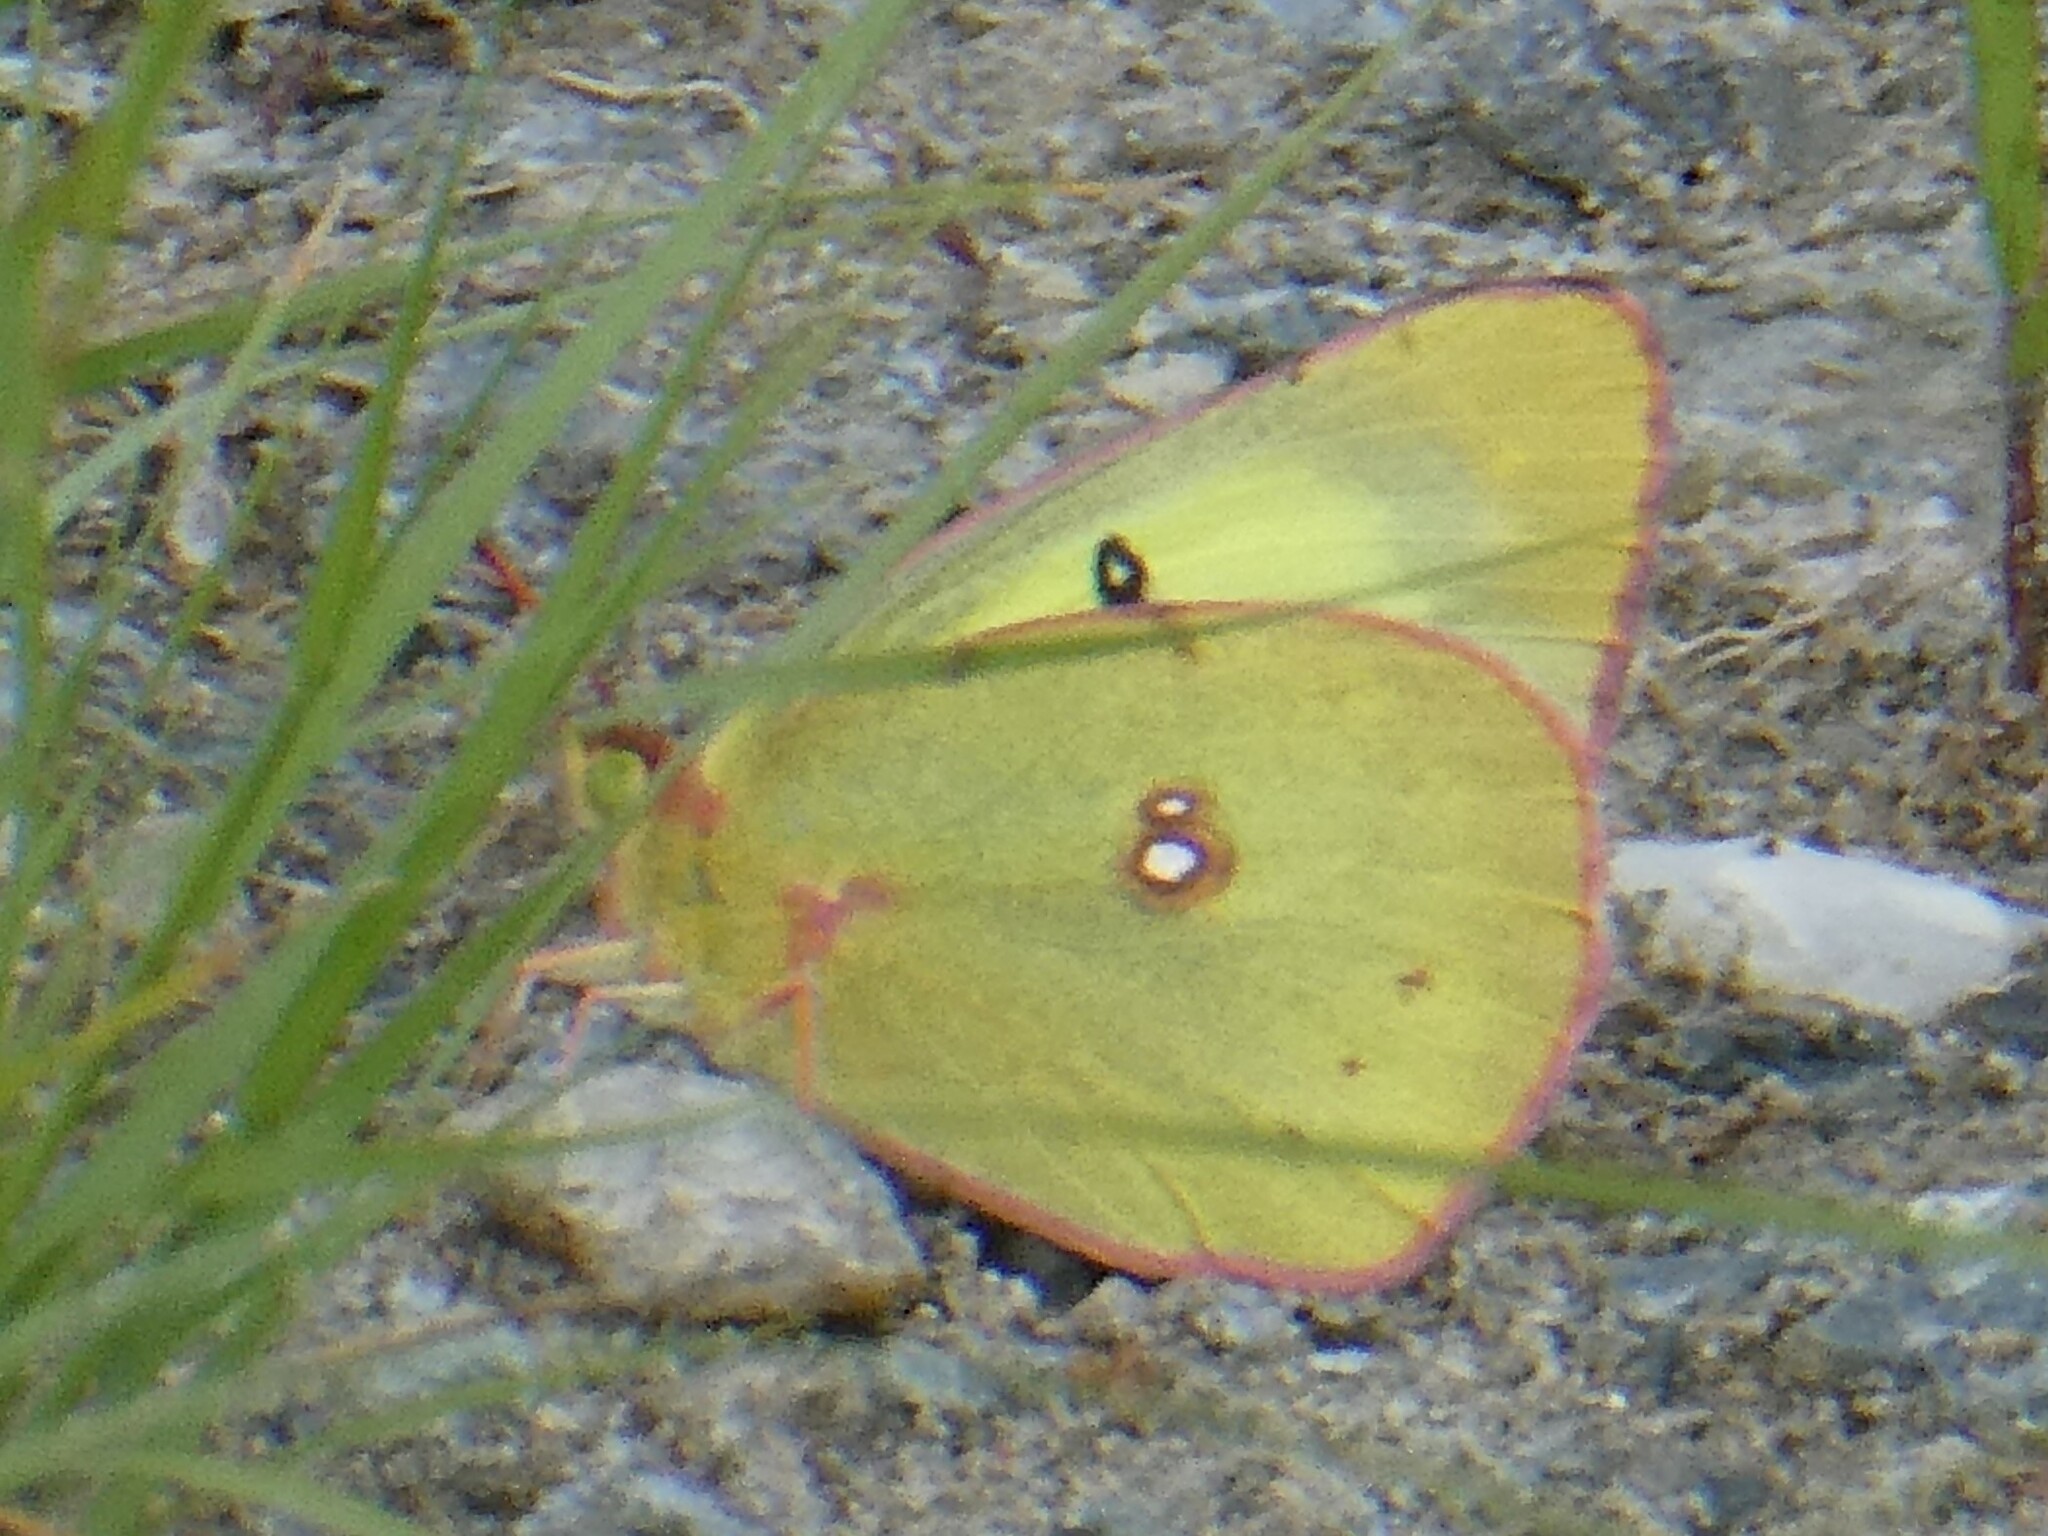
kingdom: Animalia
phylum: Arthropoda
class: Insecta
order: Lepidoptera
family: Pieridae
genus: Colias
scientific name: Colias philodice
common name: Clouded sulphur
